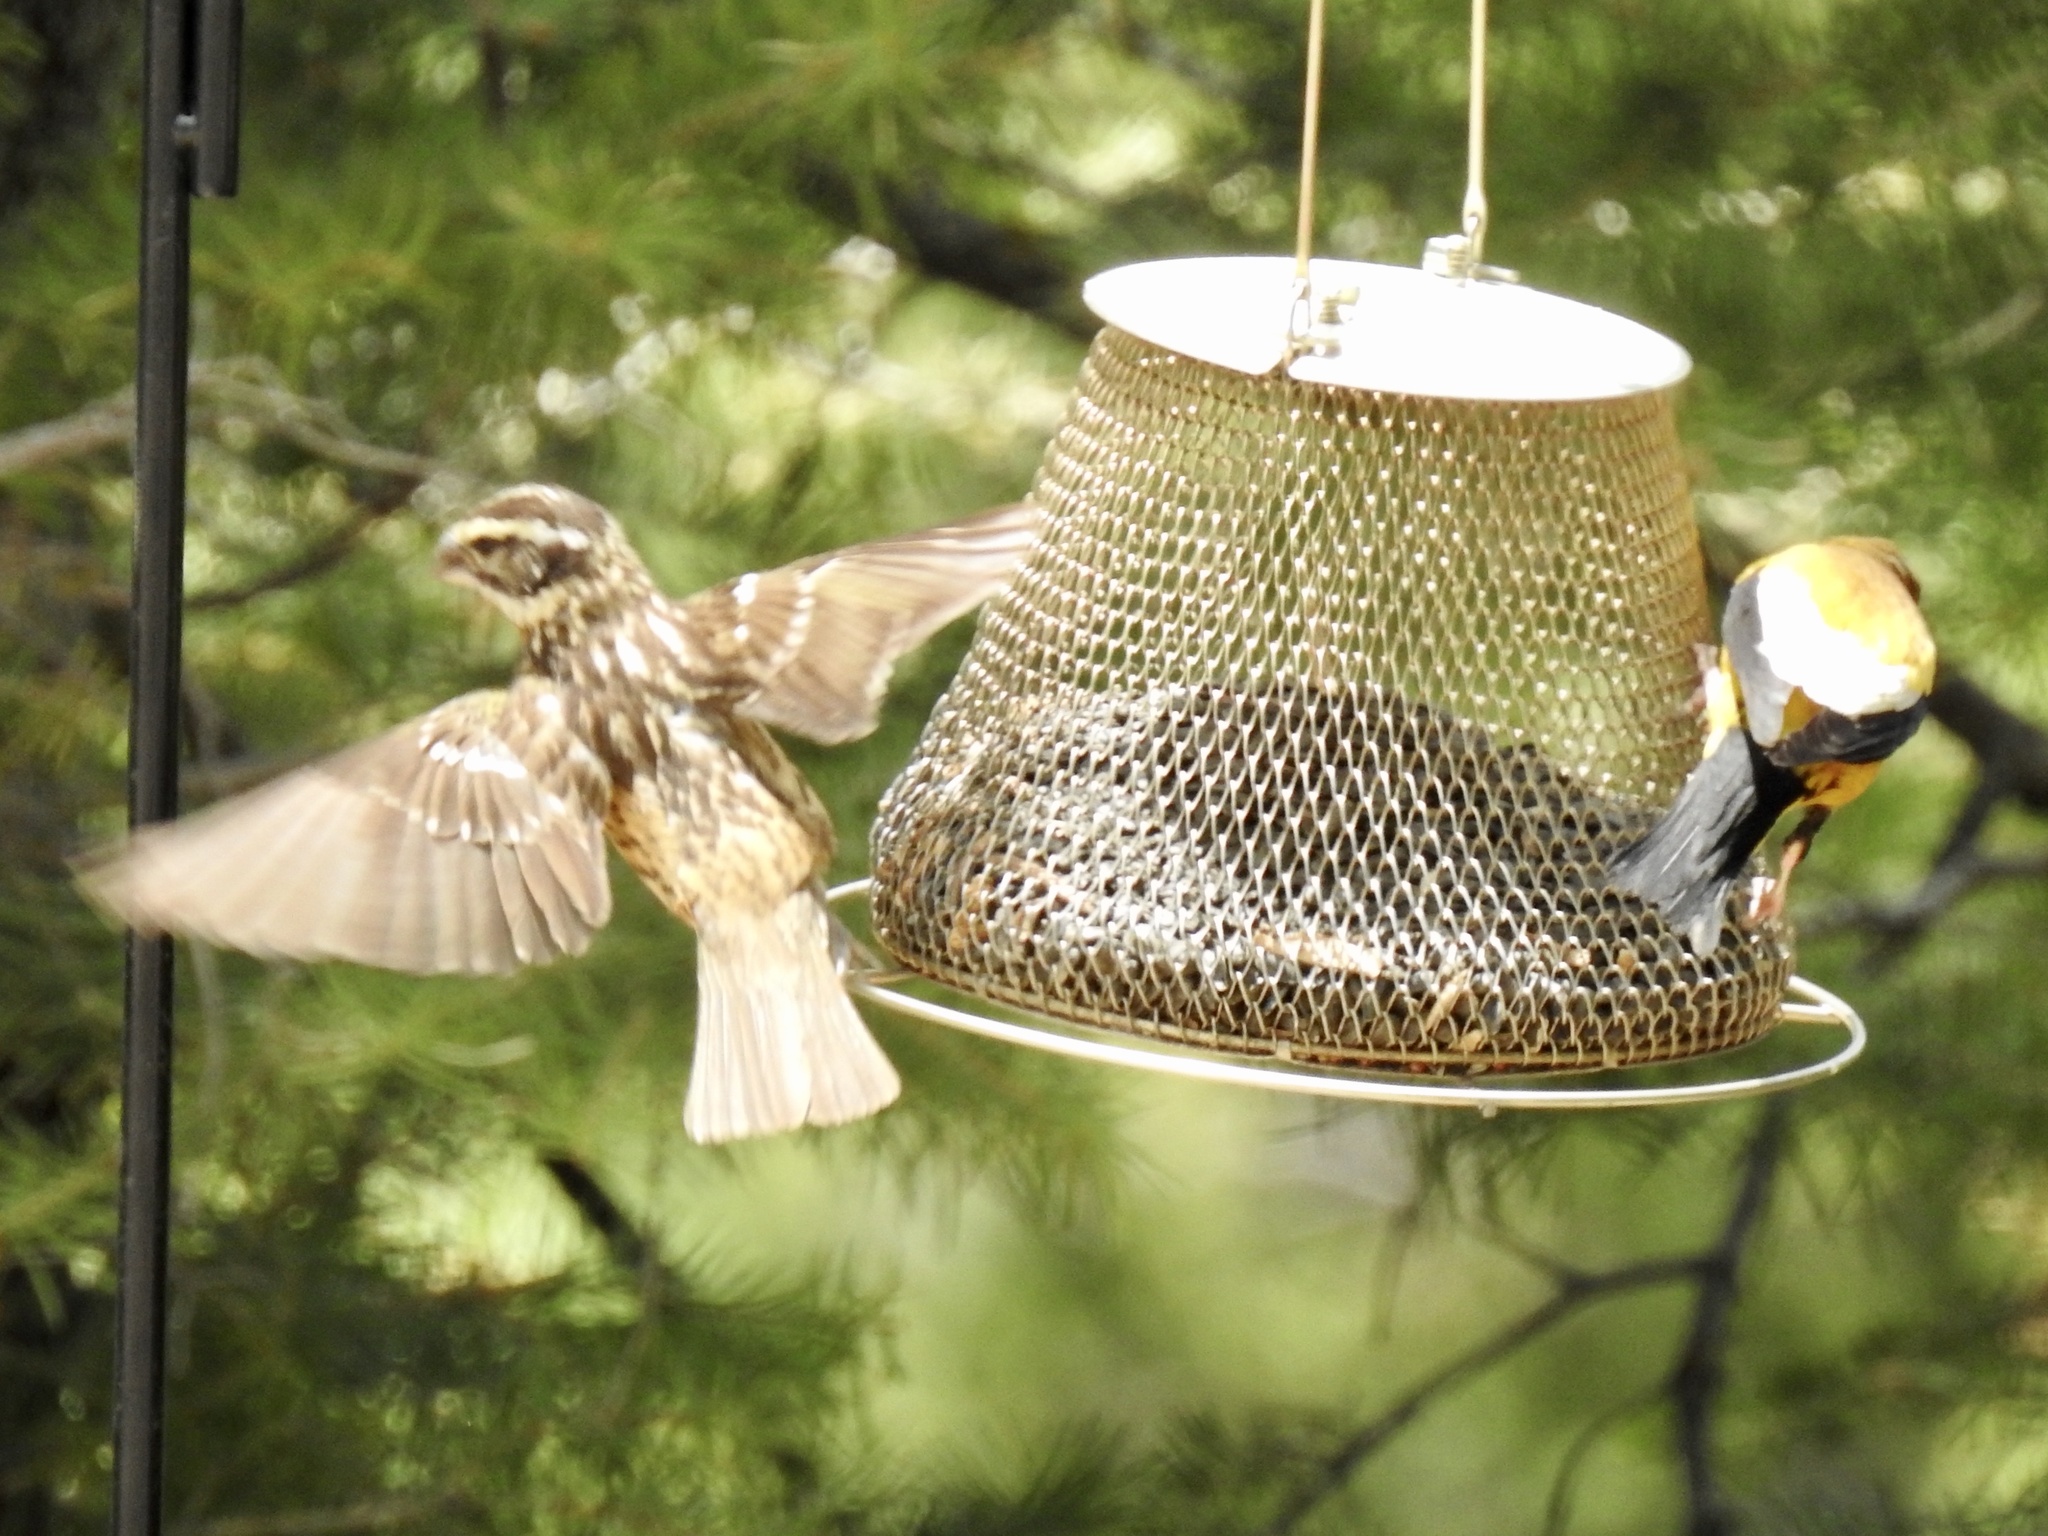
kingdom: Animalia
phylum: Chordata
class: Aves
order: Passeriformes
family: Cardinalidae
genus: Pheucticus
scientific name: Pheucticus melanocephalus
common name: Black-headed grosbeak
